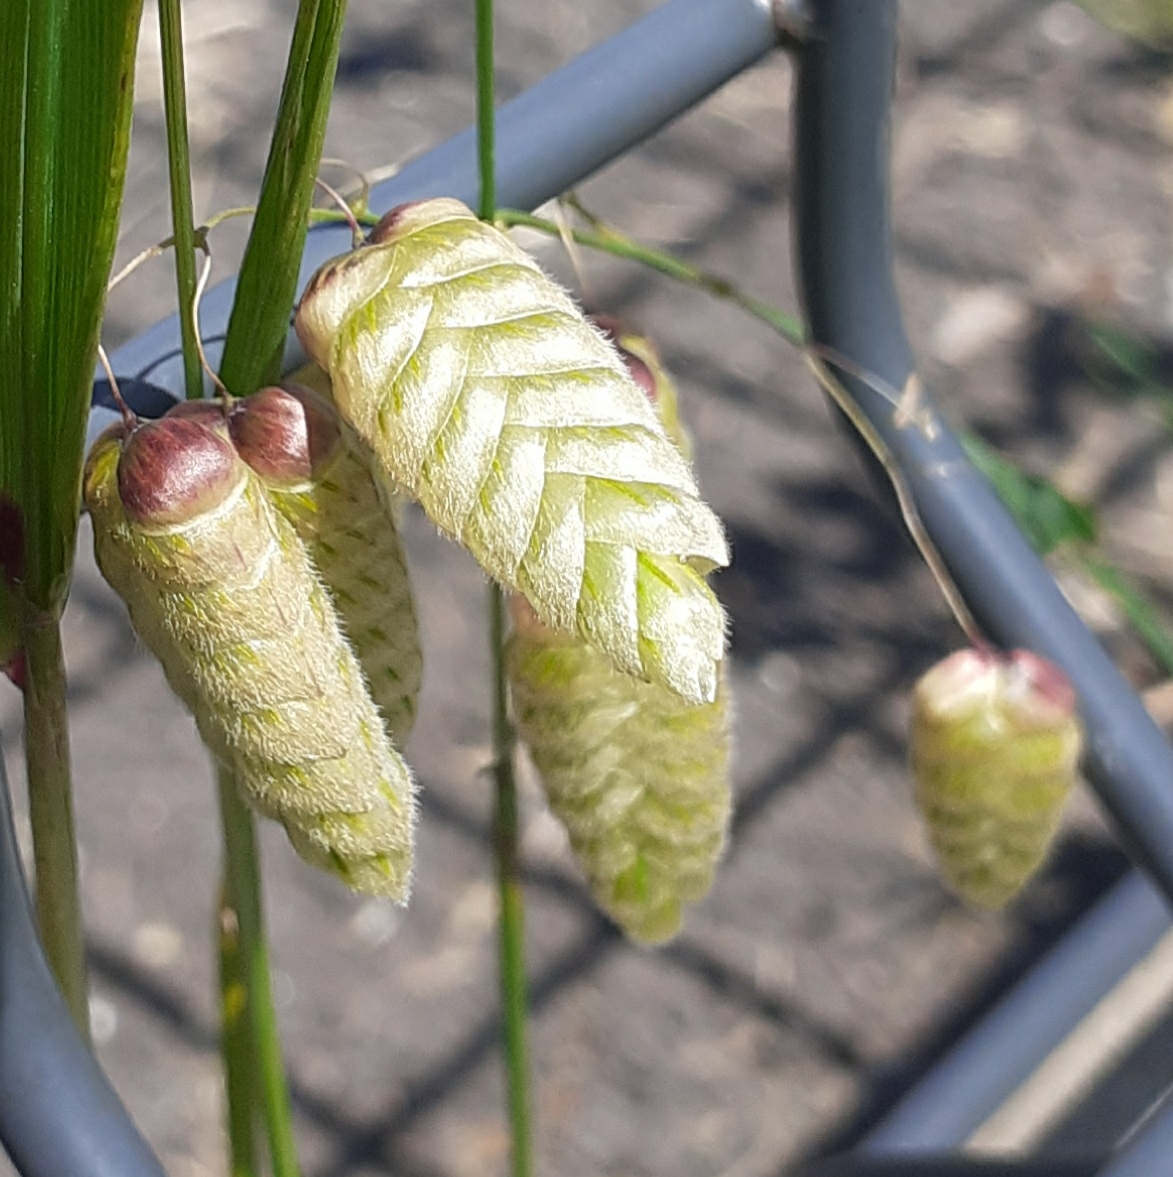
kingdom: Plantae
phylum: Tracheophyta
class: Liliopsida
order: Poales
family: Poaceae
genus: Briza
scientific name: Briza maxima
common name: Big quakinggrass
